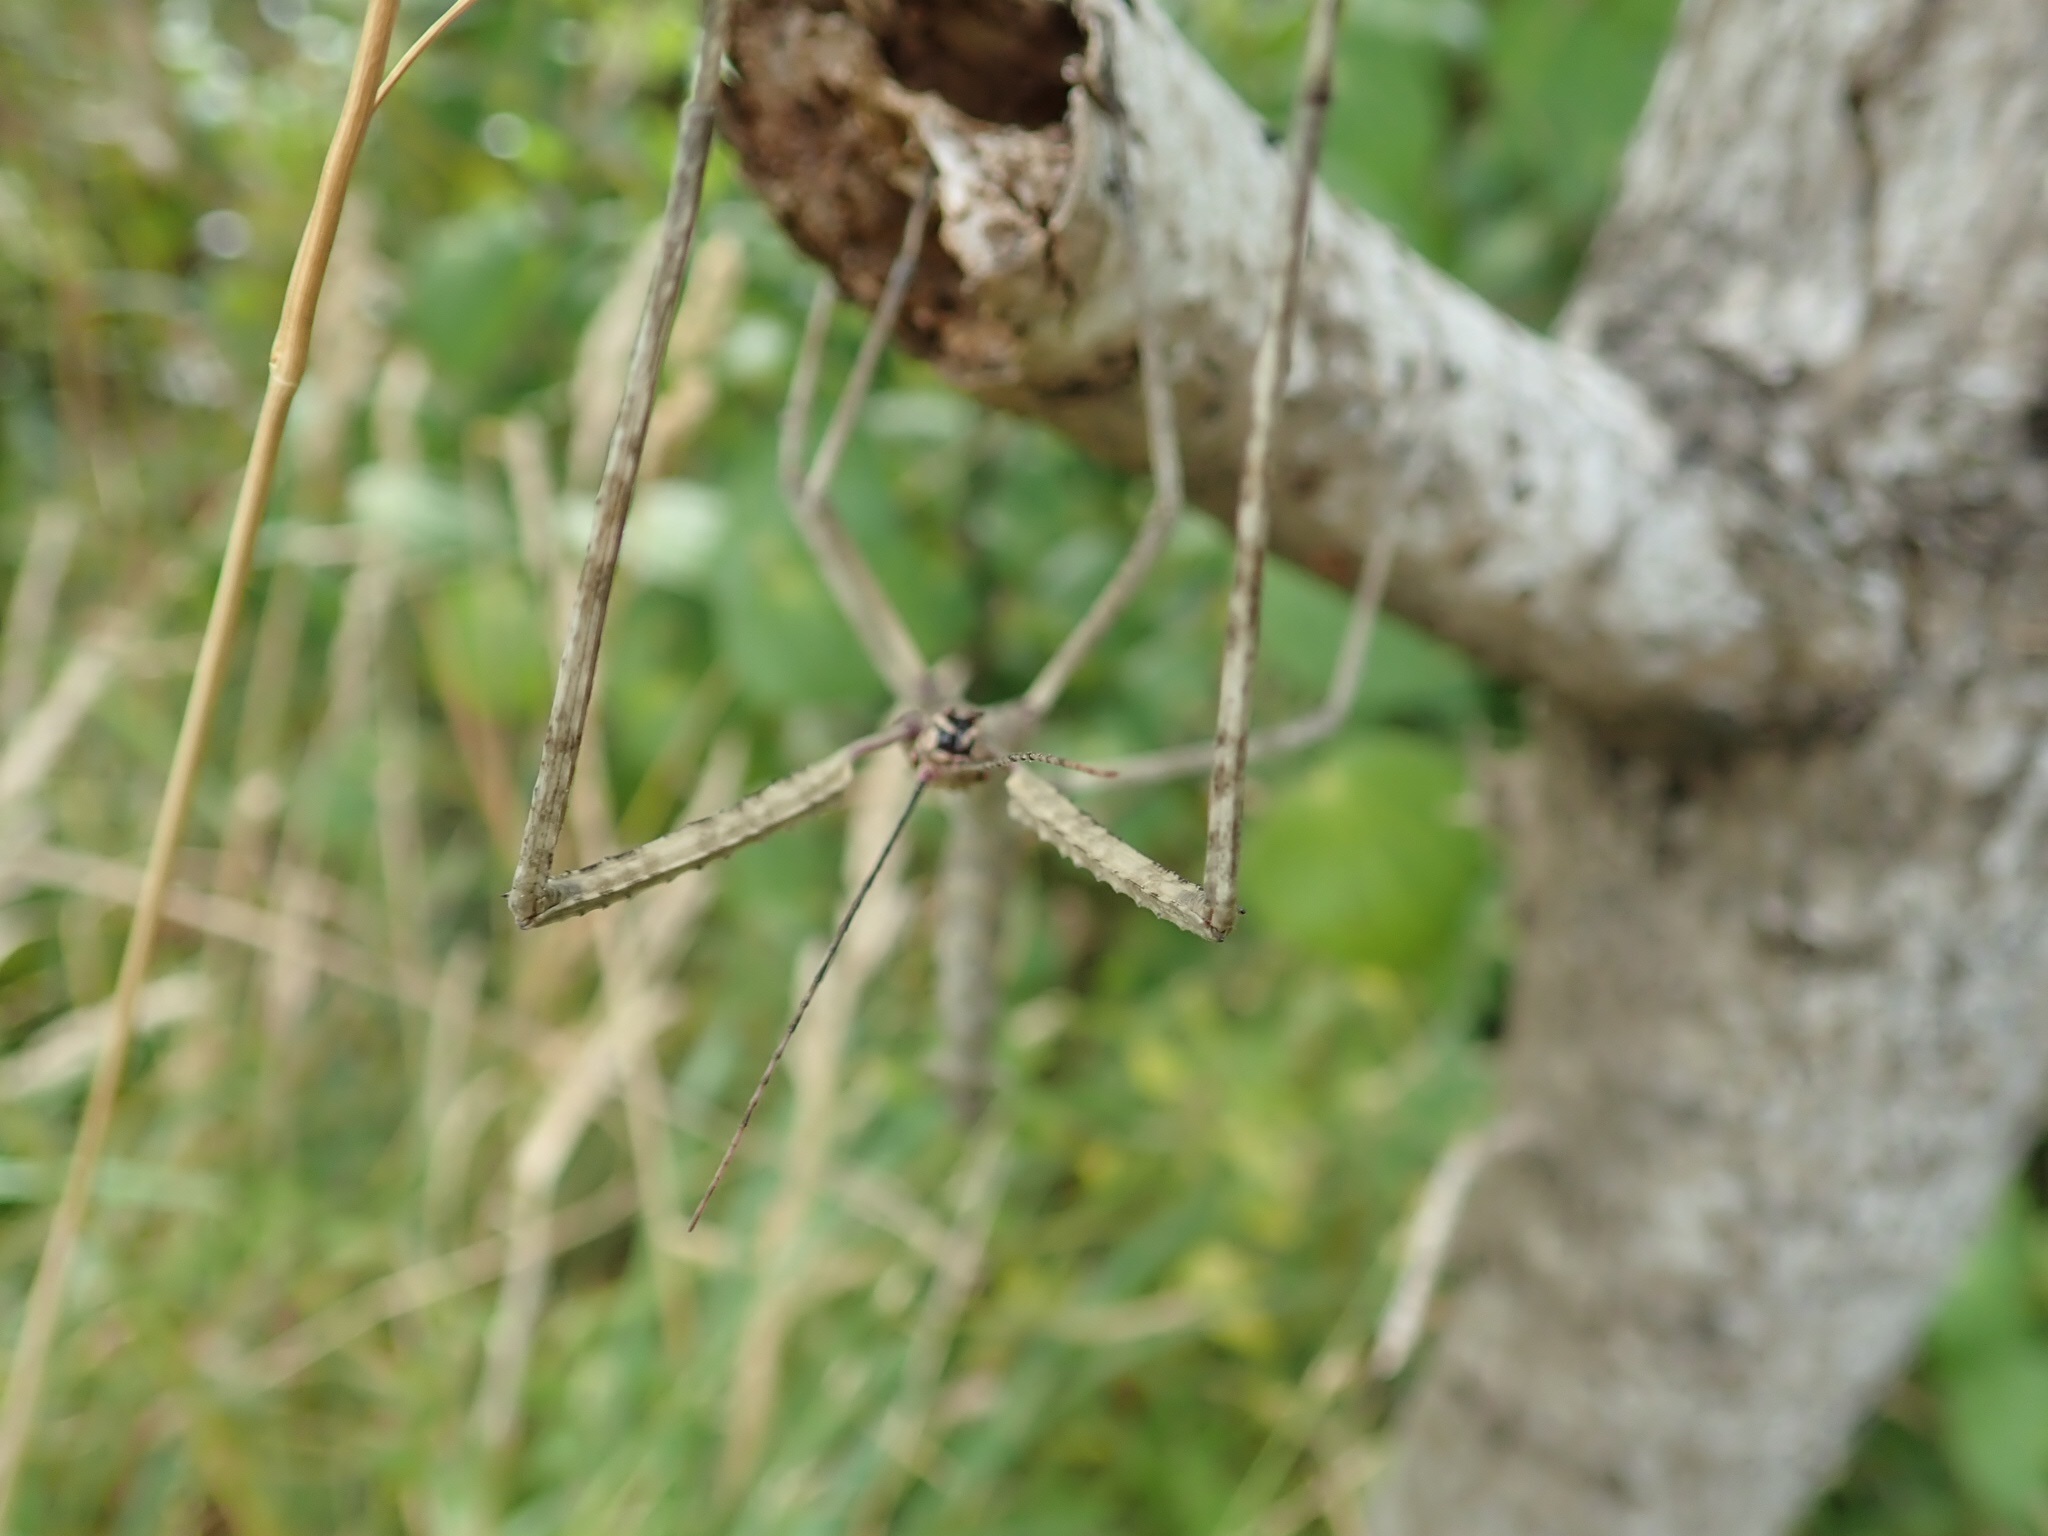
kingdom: Animalia
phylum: Arthropoda
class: Insecta
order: Phasmida
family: Phasmatidae
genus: Argosarchus
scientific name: Argosarchus horridus
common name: Bristly stick insect
